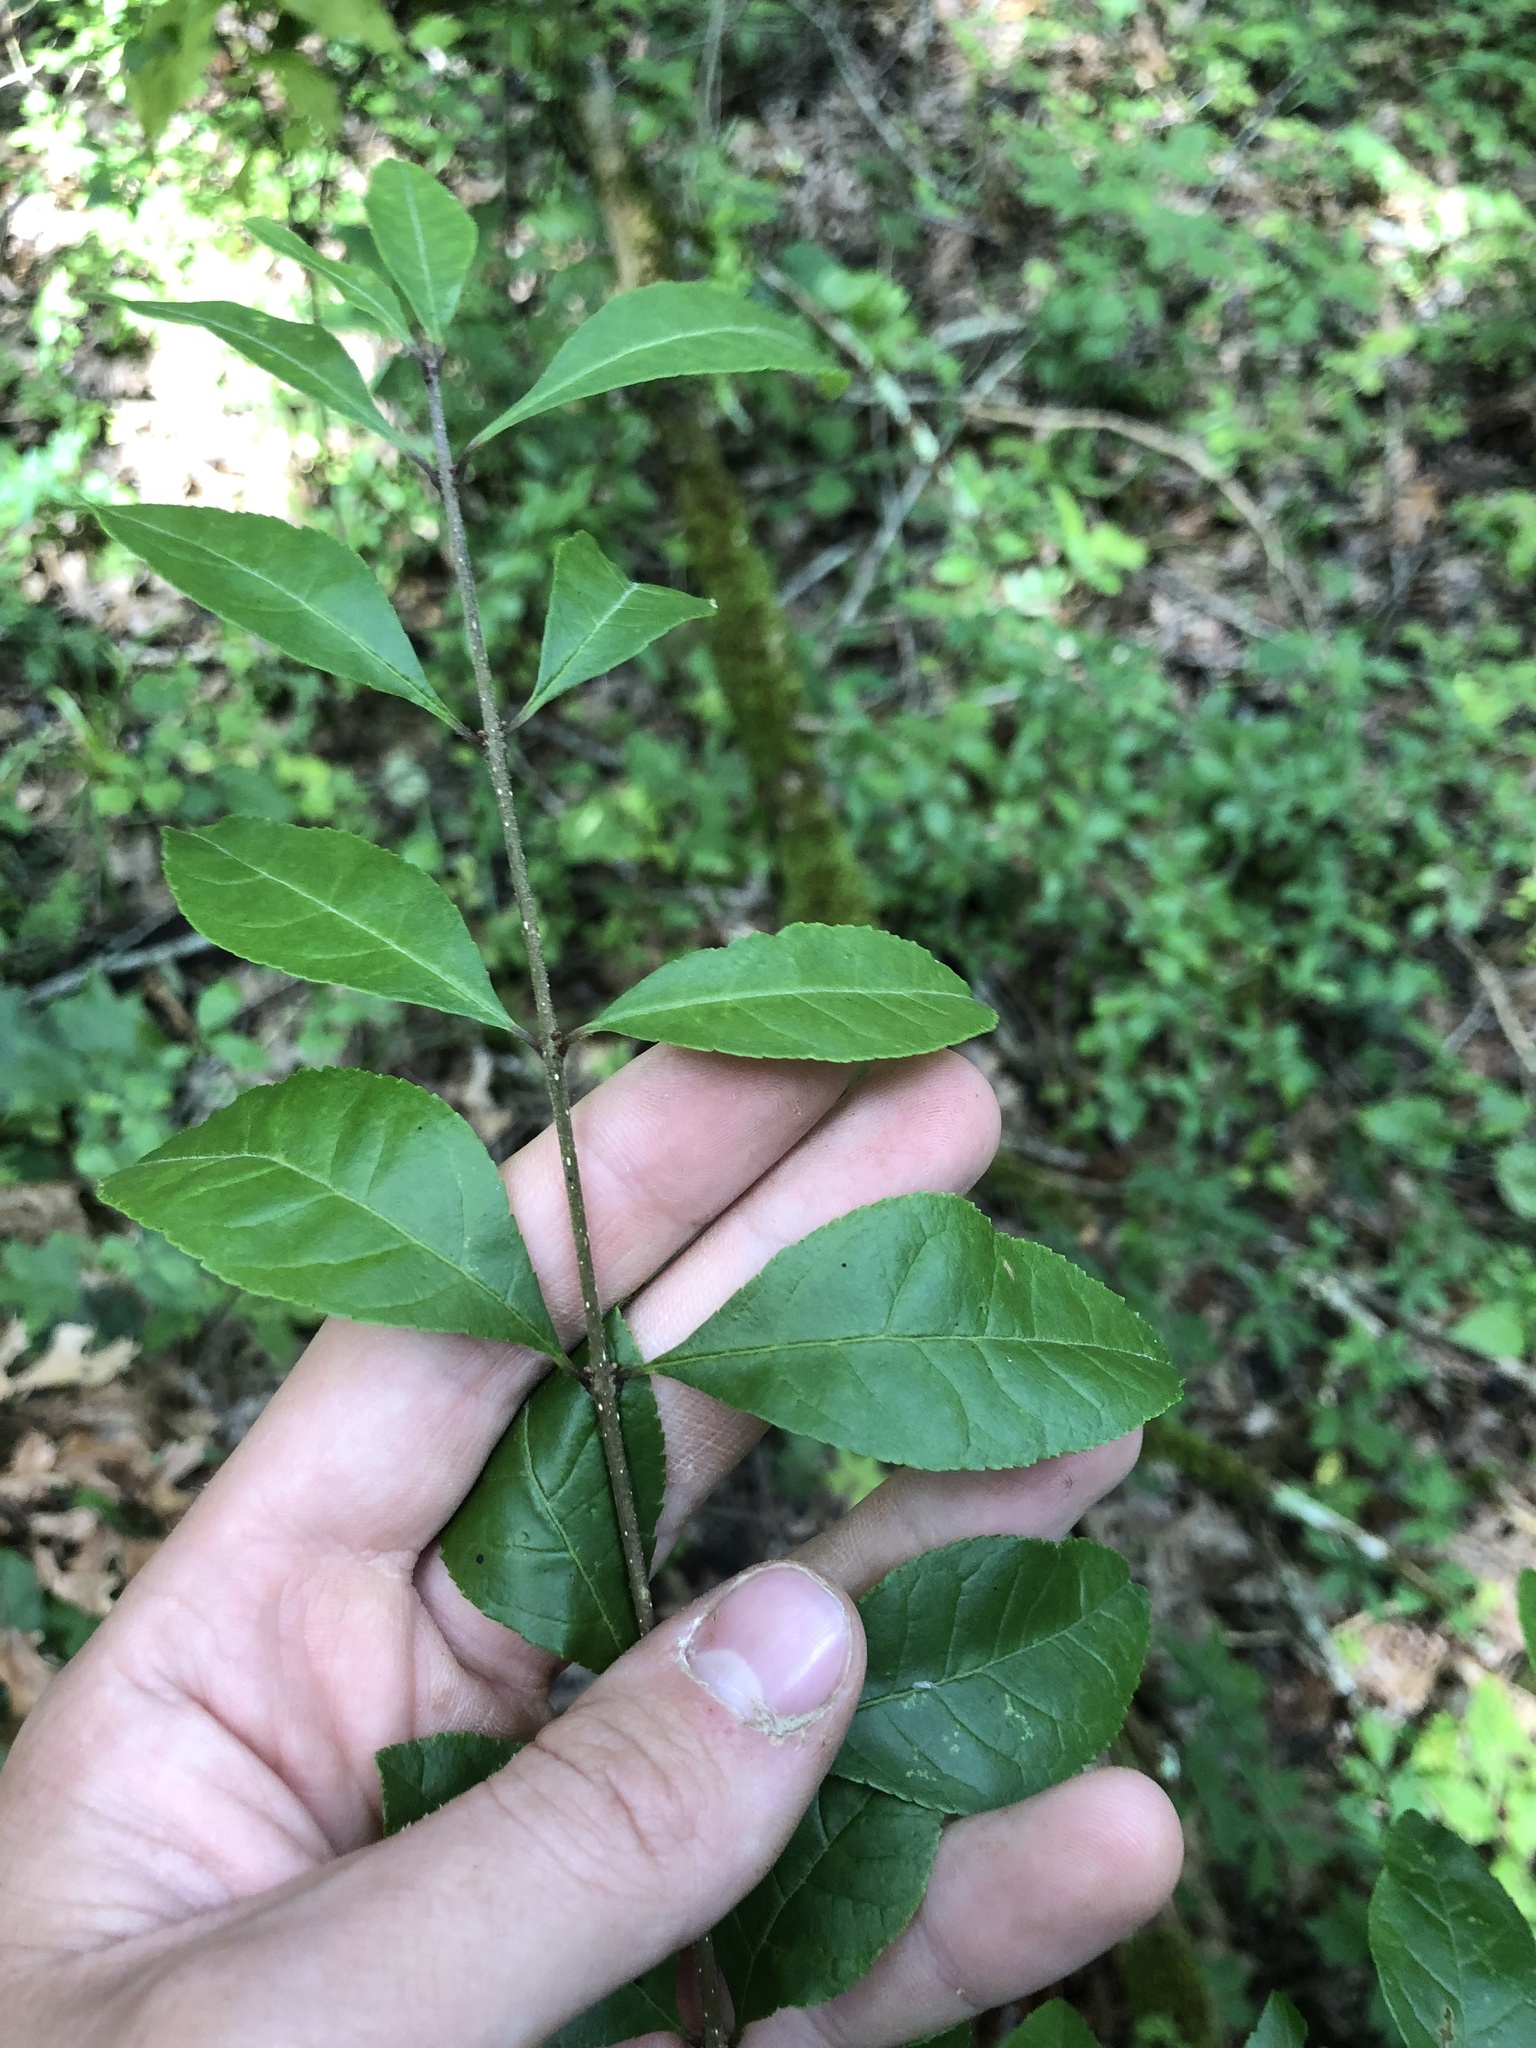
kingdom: Plantae
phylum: Tracheophyta
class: Magnoliopsida
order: Lamiales
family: Oleaceae
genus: Forestiera
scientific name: Forestiera ligustrina
